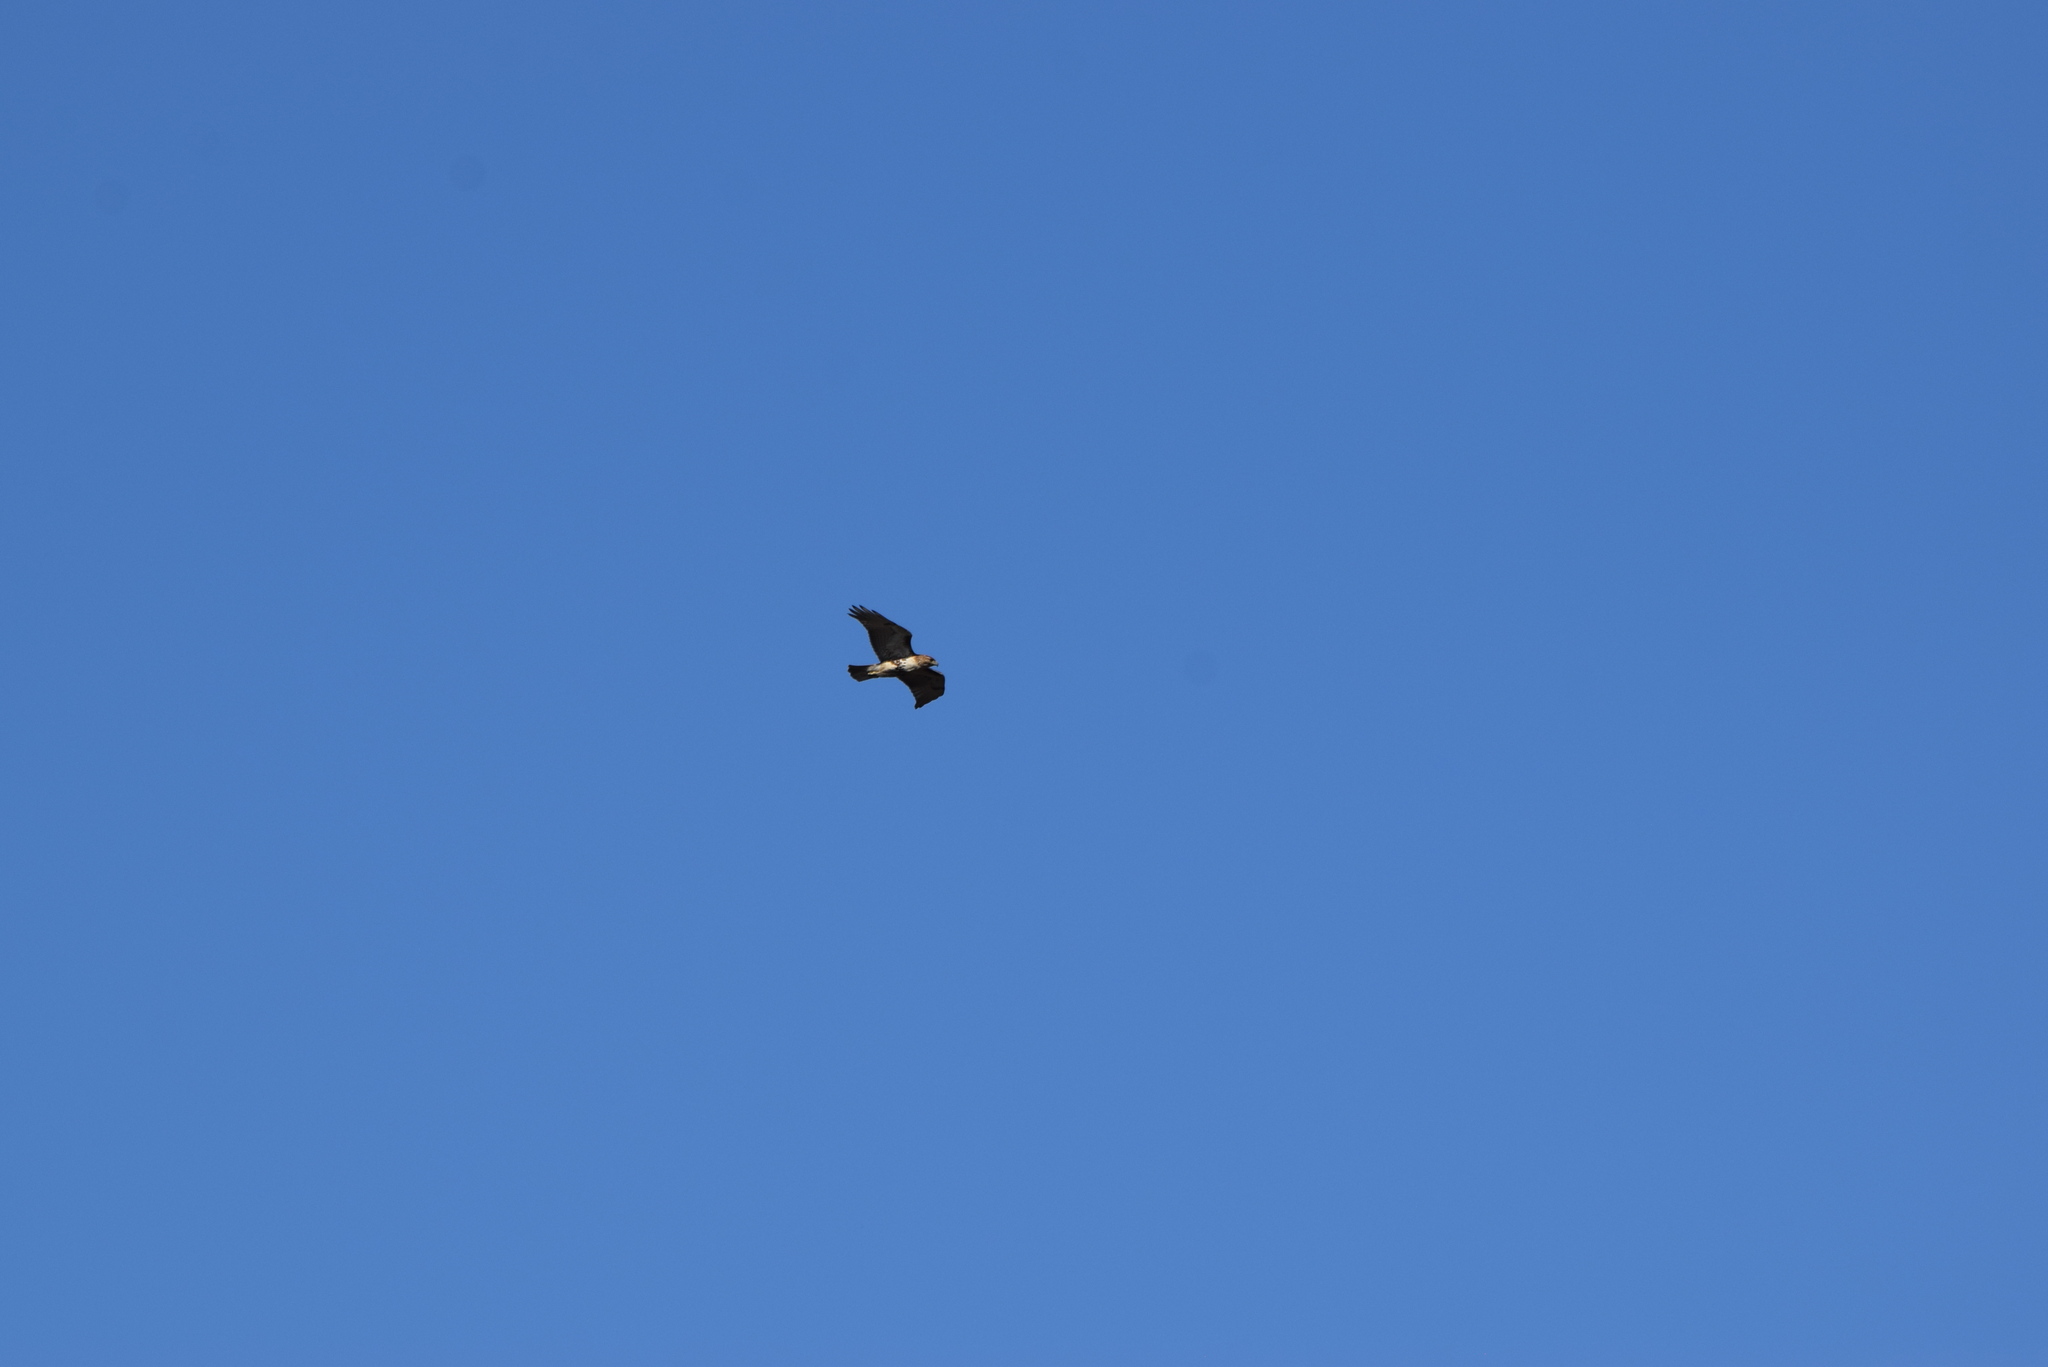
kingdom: Animalia
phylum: Chordata
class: Aves
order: Accipitriformes
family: Accipitridae
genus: Buteo
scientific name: Buteo jamaicensis
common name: Red-tailed hawk
